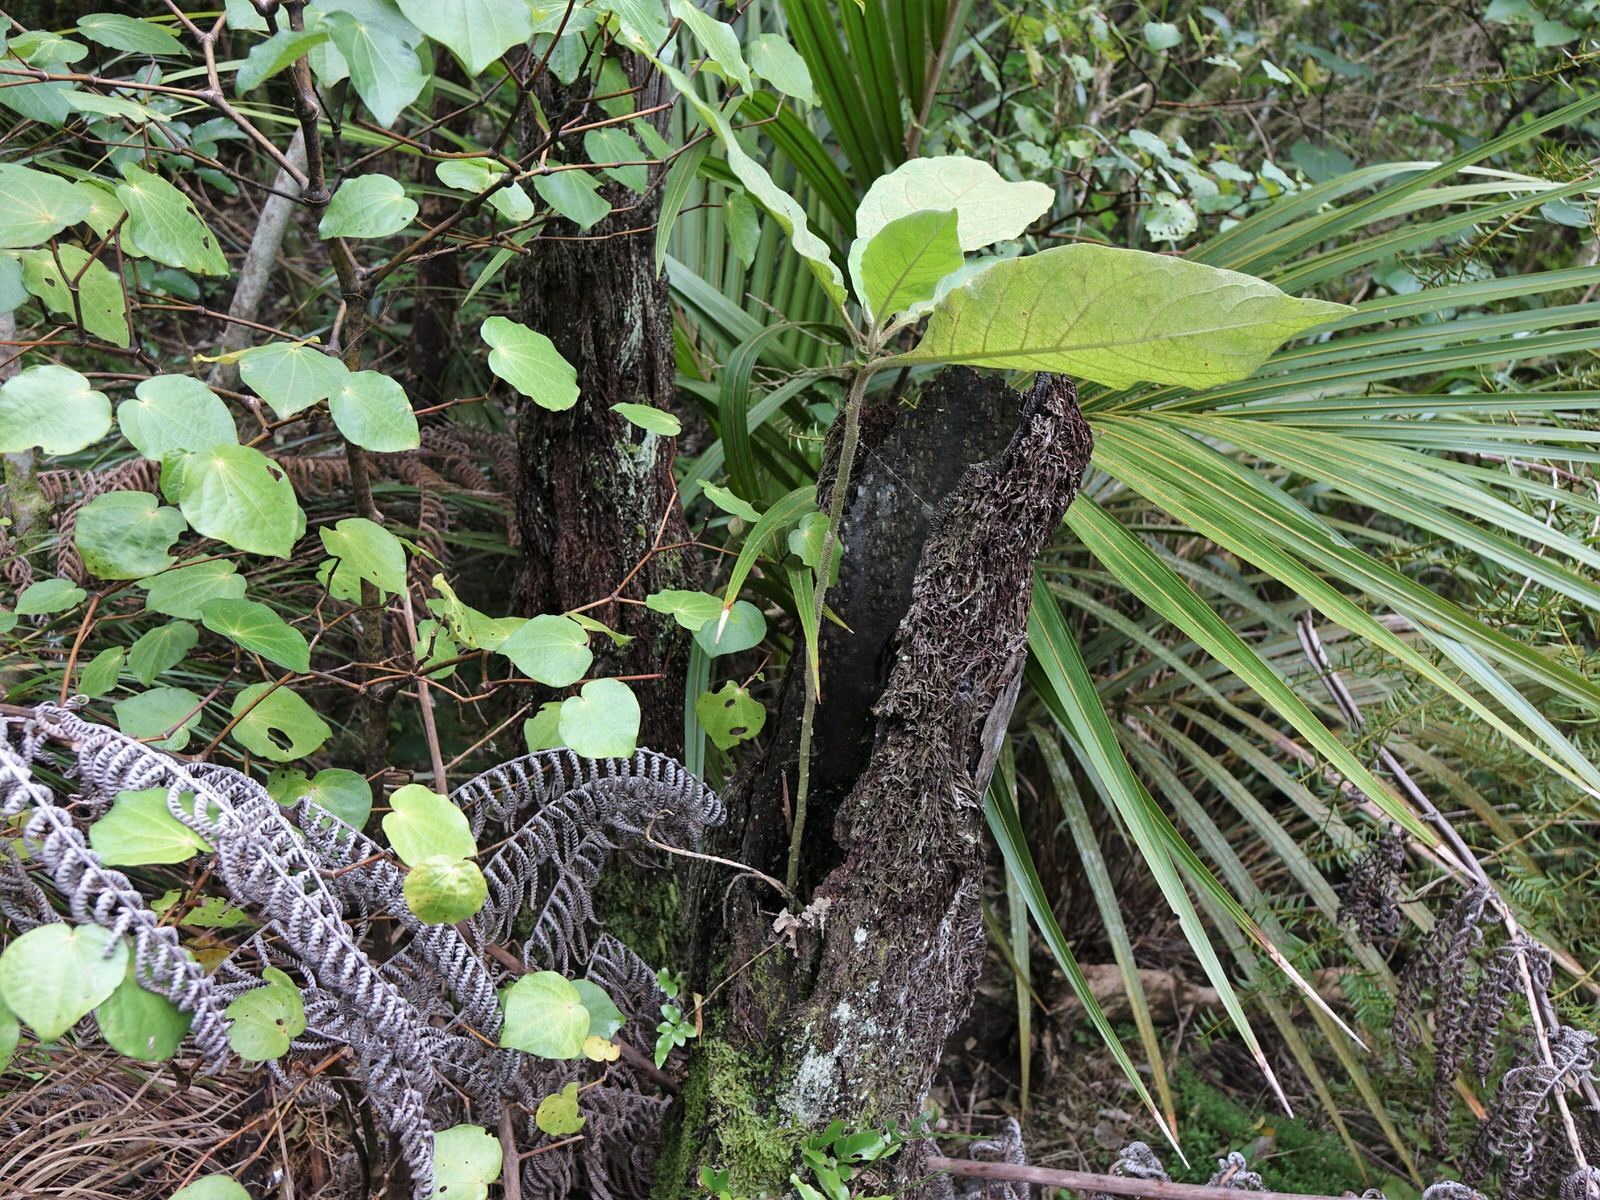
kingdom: Plantae
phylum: Tracheophyta
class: Magnoliopsida
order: Solanales
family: Solanaceae
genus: Solanum
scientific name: Solanum mauritianum
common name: Earleaf nightshade
